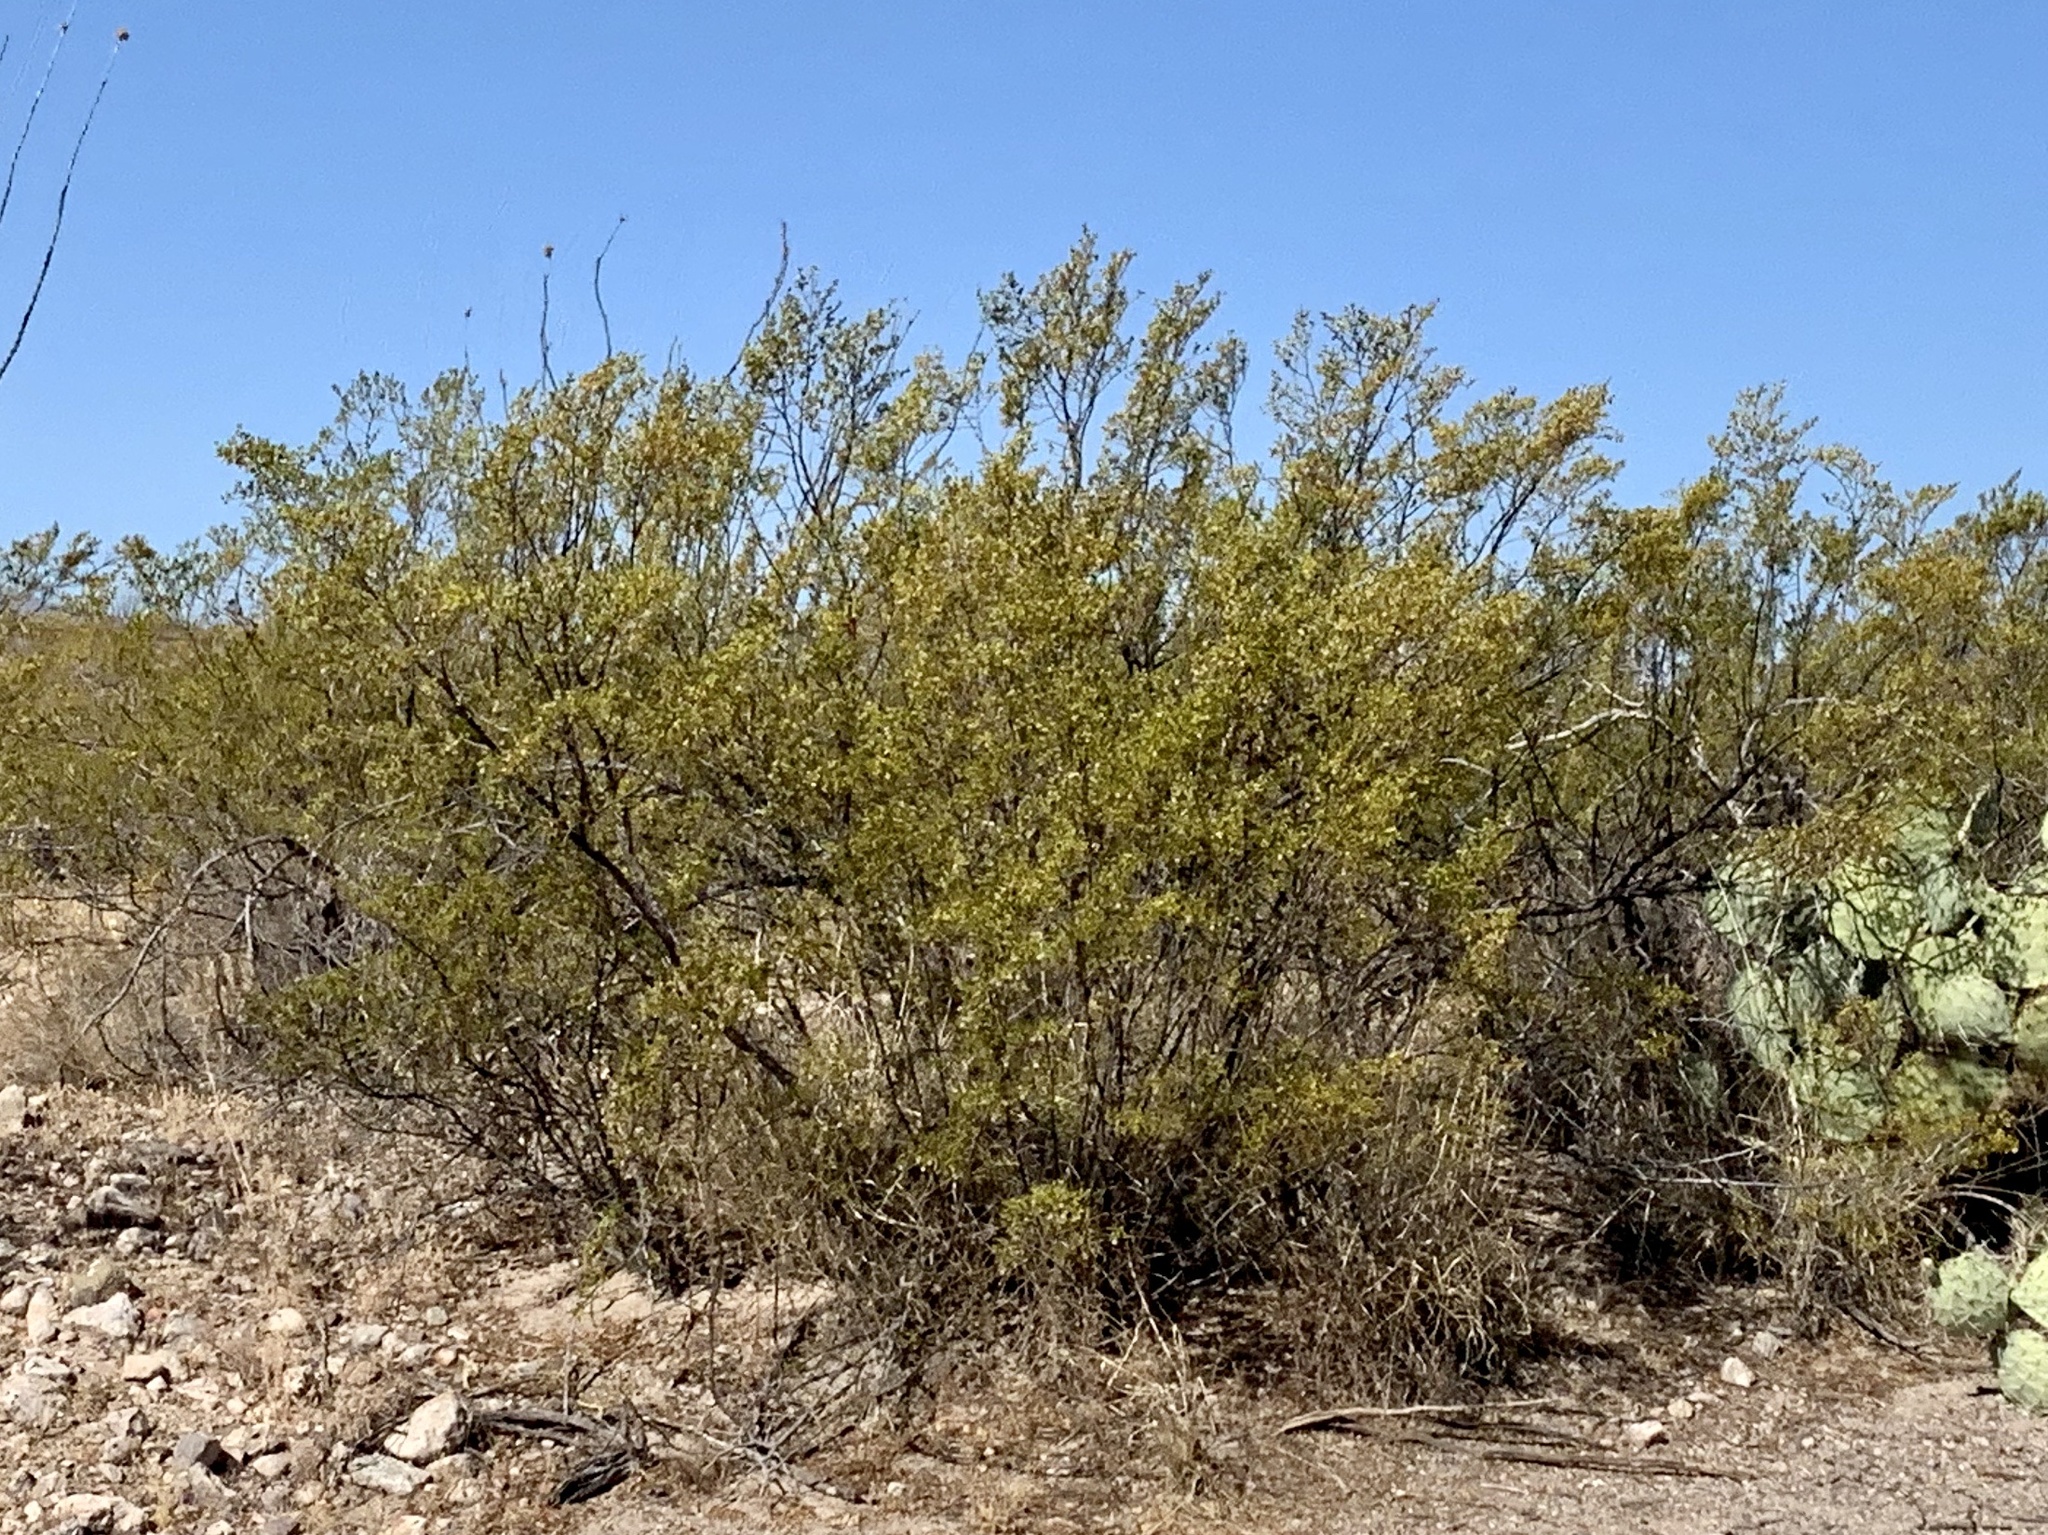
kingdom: Plantae
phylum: Tracheophyta
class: Magnoliopsida
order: Zygophyllales
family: Zygophyllaceae
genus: Larrea
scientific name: Larrea tridentata
